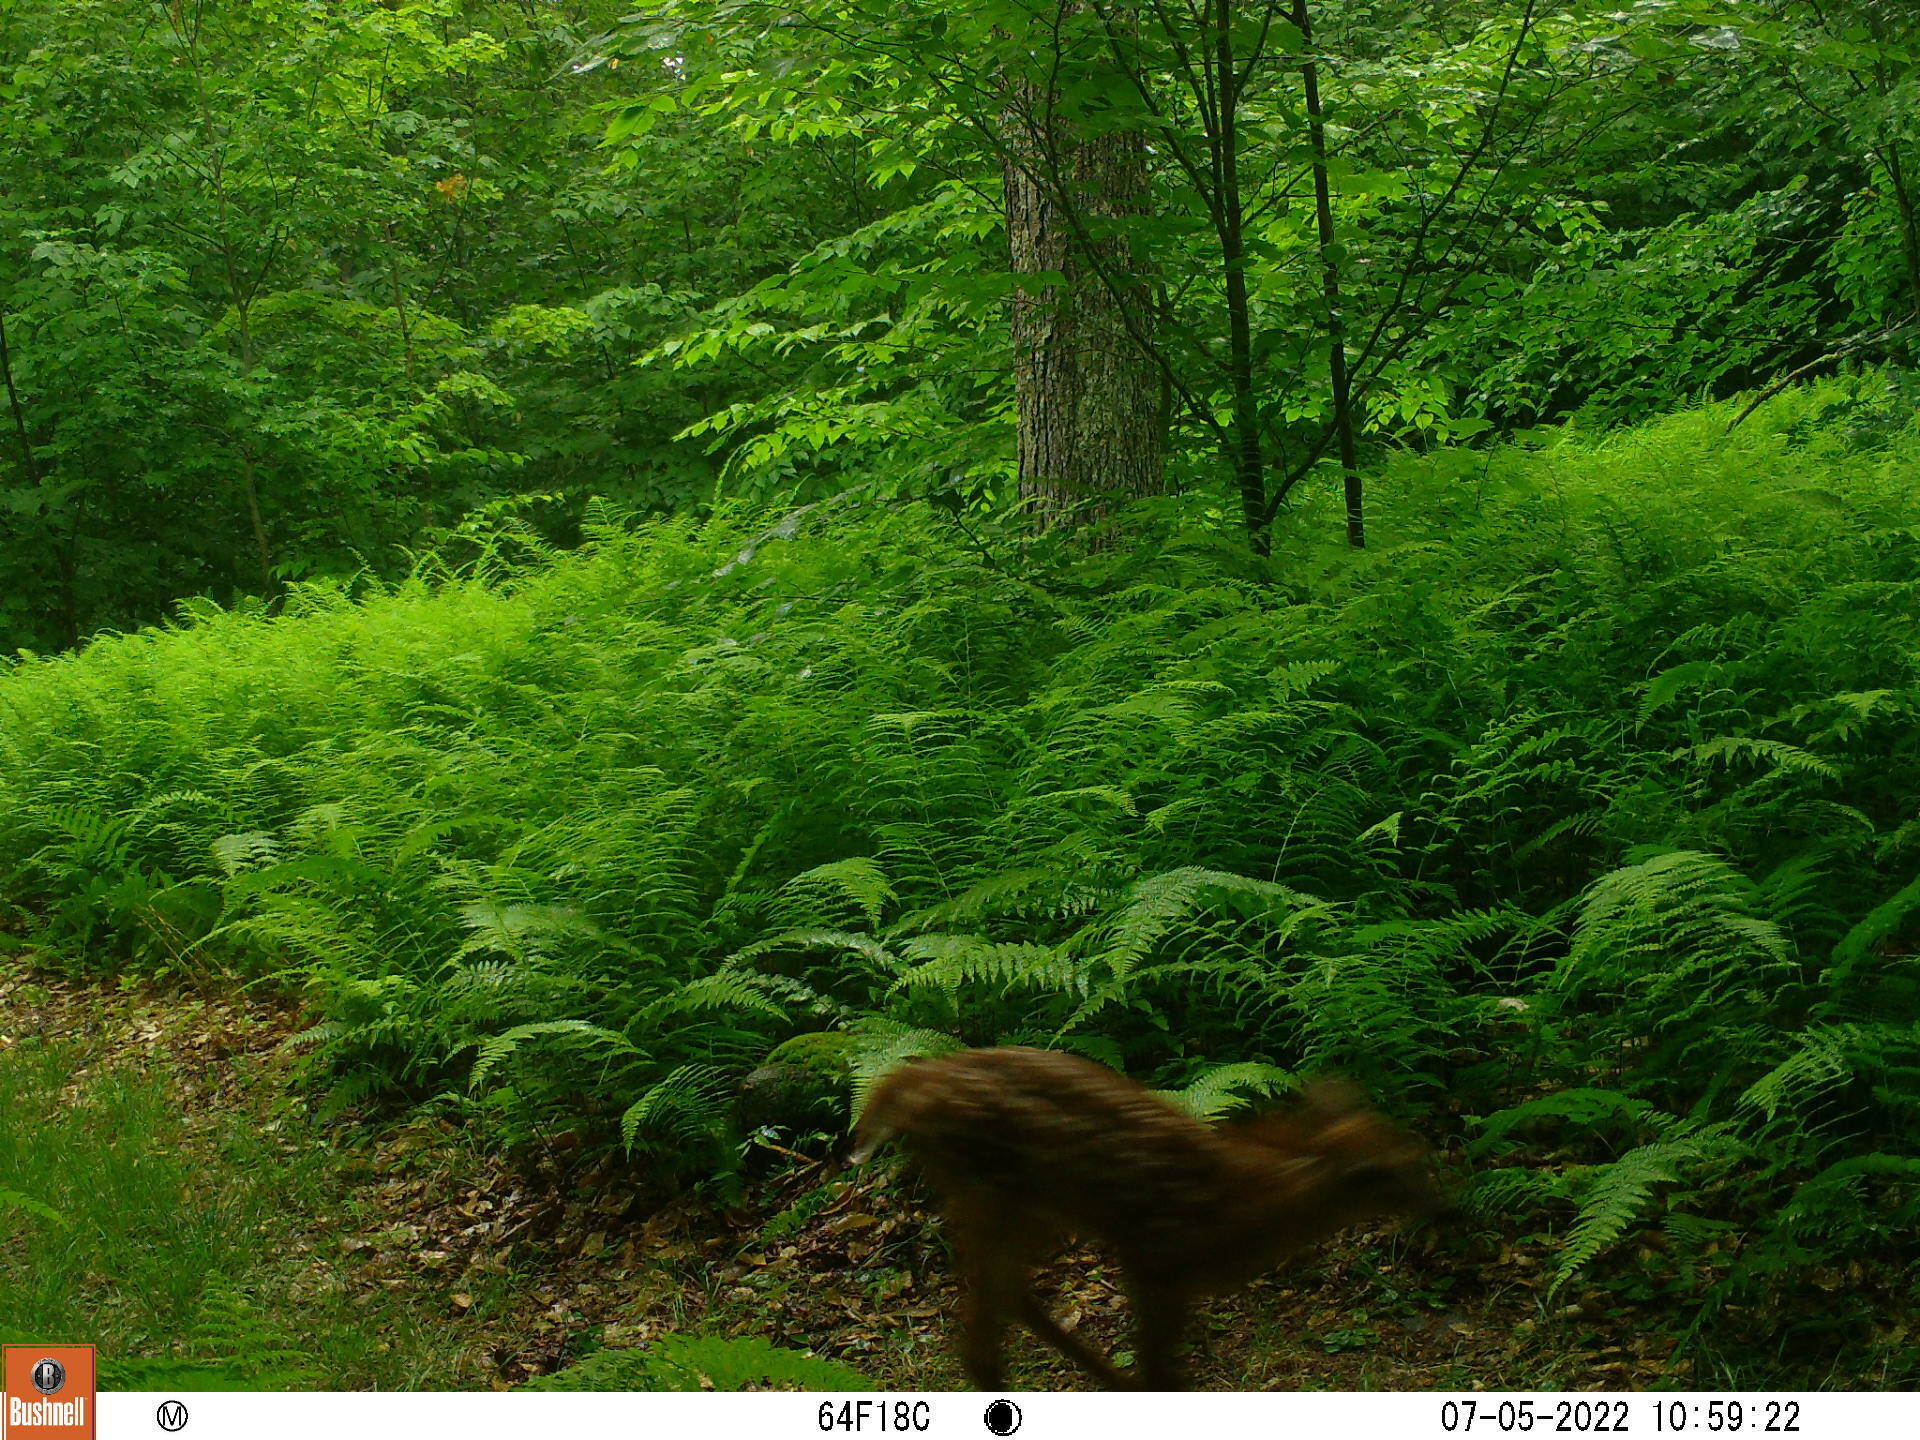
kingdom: Animalia
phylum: Chordata
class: Mammalia
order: Artiodactyla
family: Cervidae
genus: Odocoileus
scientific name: Odocoileus virginianus
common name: White-tailed deer
